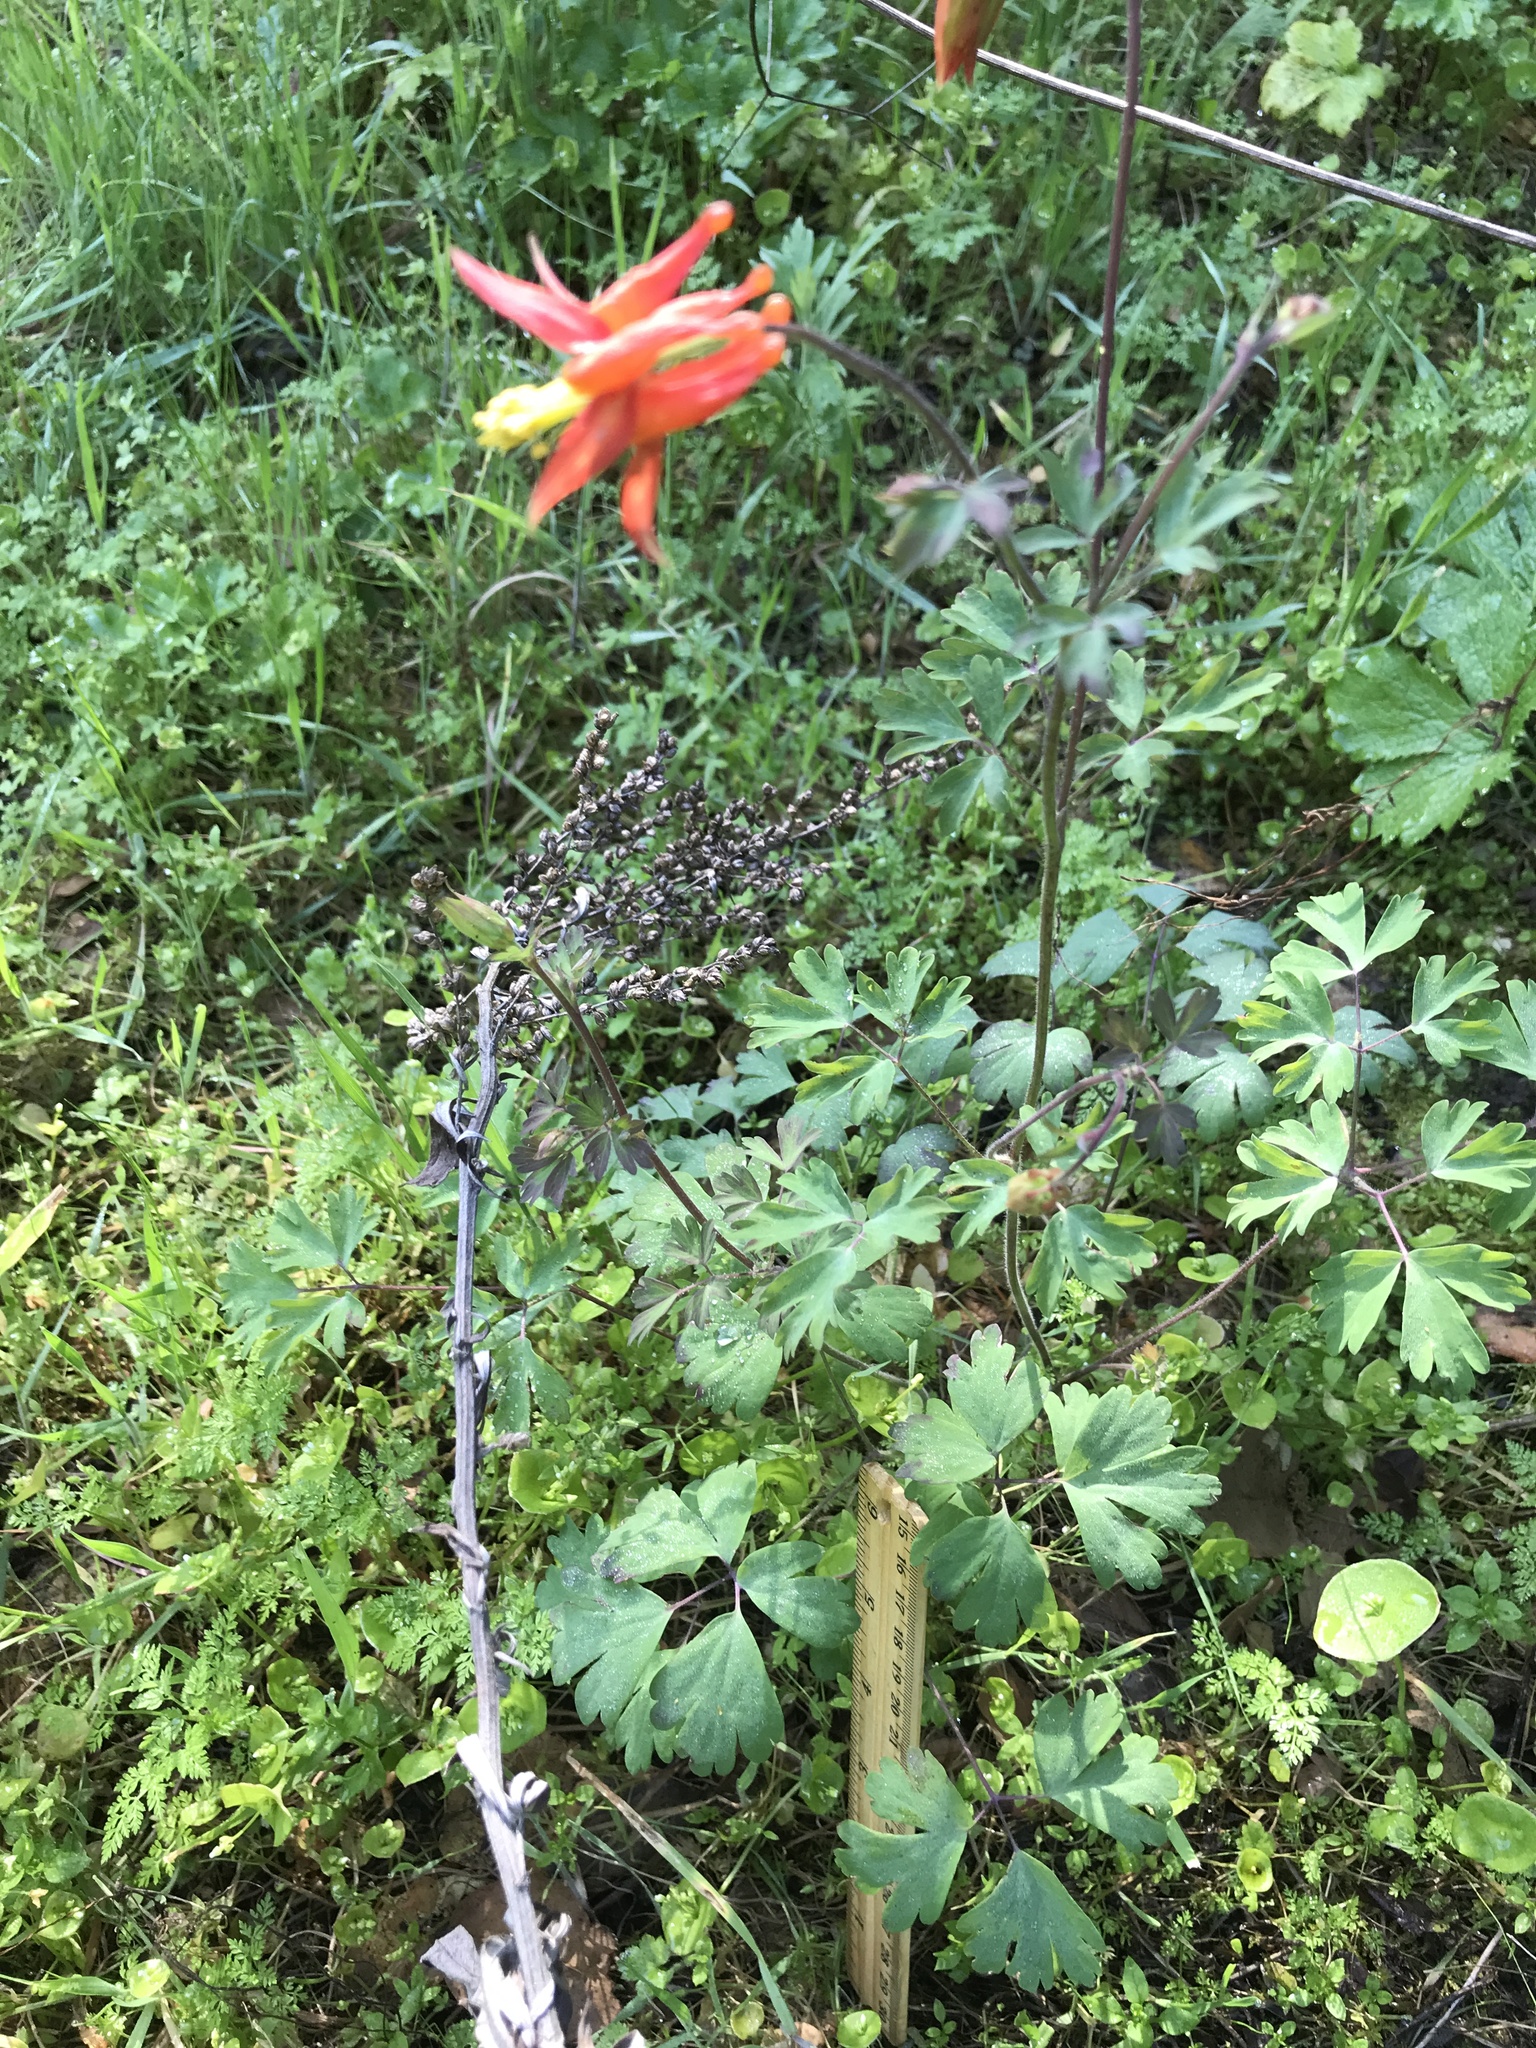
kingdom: Plantae
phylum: Tracheophyta
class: Magnoliopsida
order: Ranunculales
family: Ranunculaceae
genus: Aquilegia
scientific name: Aquilegia formosa
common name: Sitka columbine
